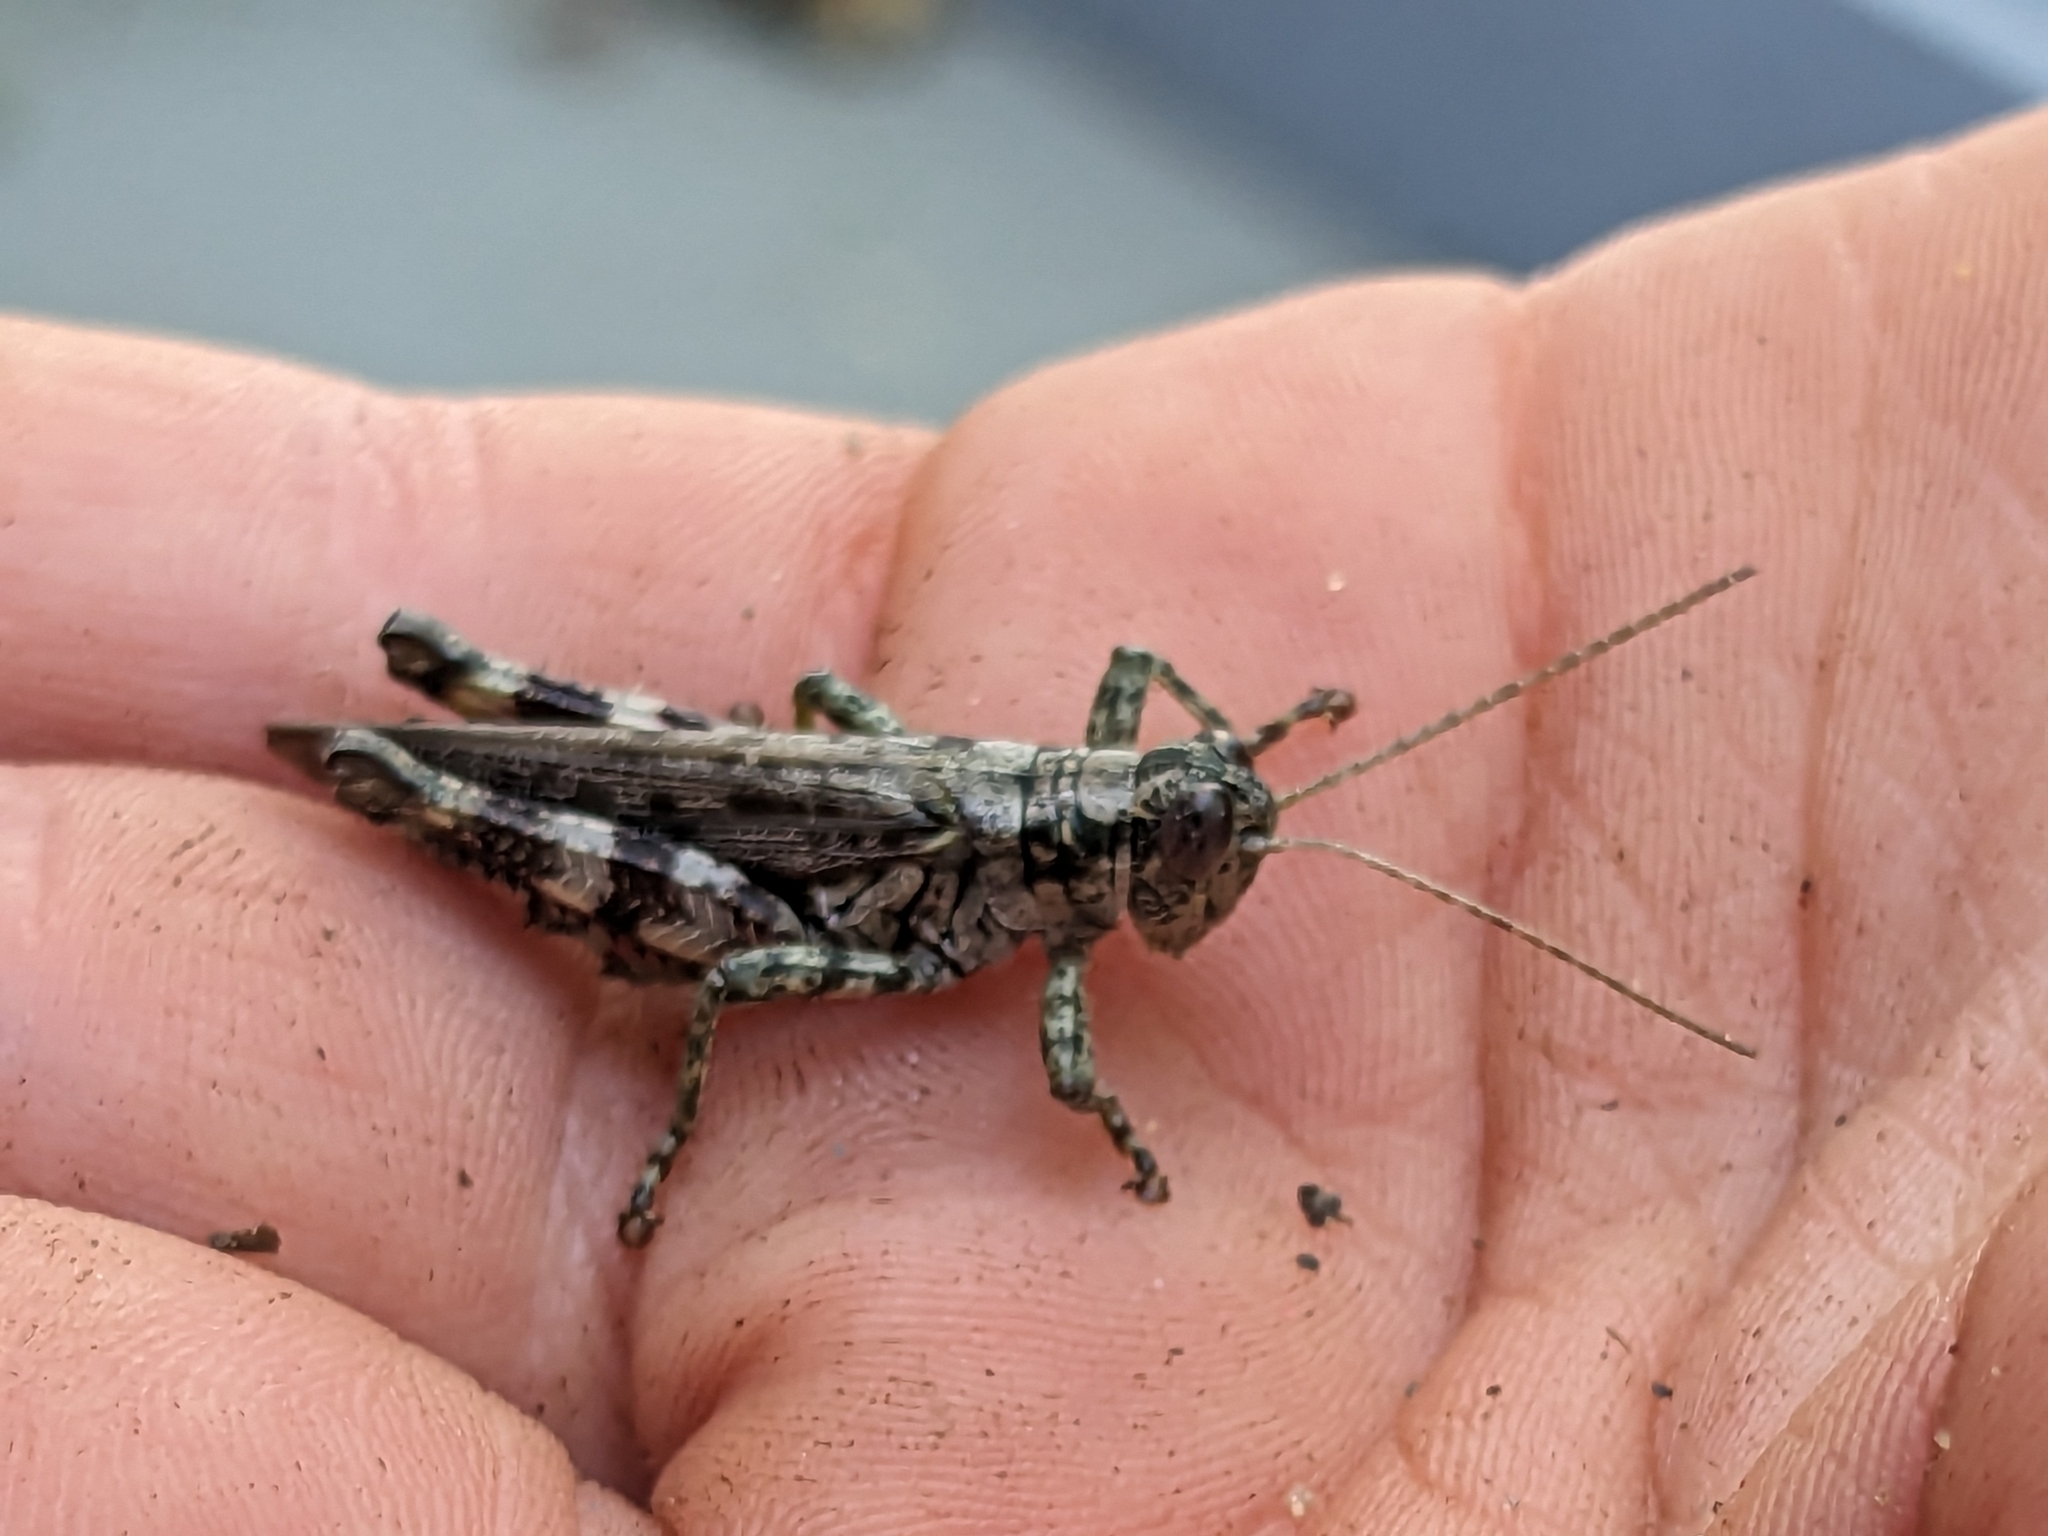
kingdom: Animalia
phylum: Arthropoda
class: Insecta
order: Orthoptera
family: Acrididae
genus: Melanoplus
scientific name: Melanoplus punctulatus
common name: Pine-tree spur-throat grasshopper
